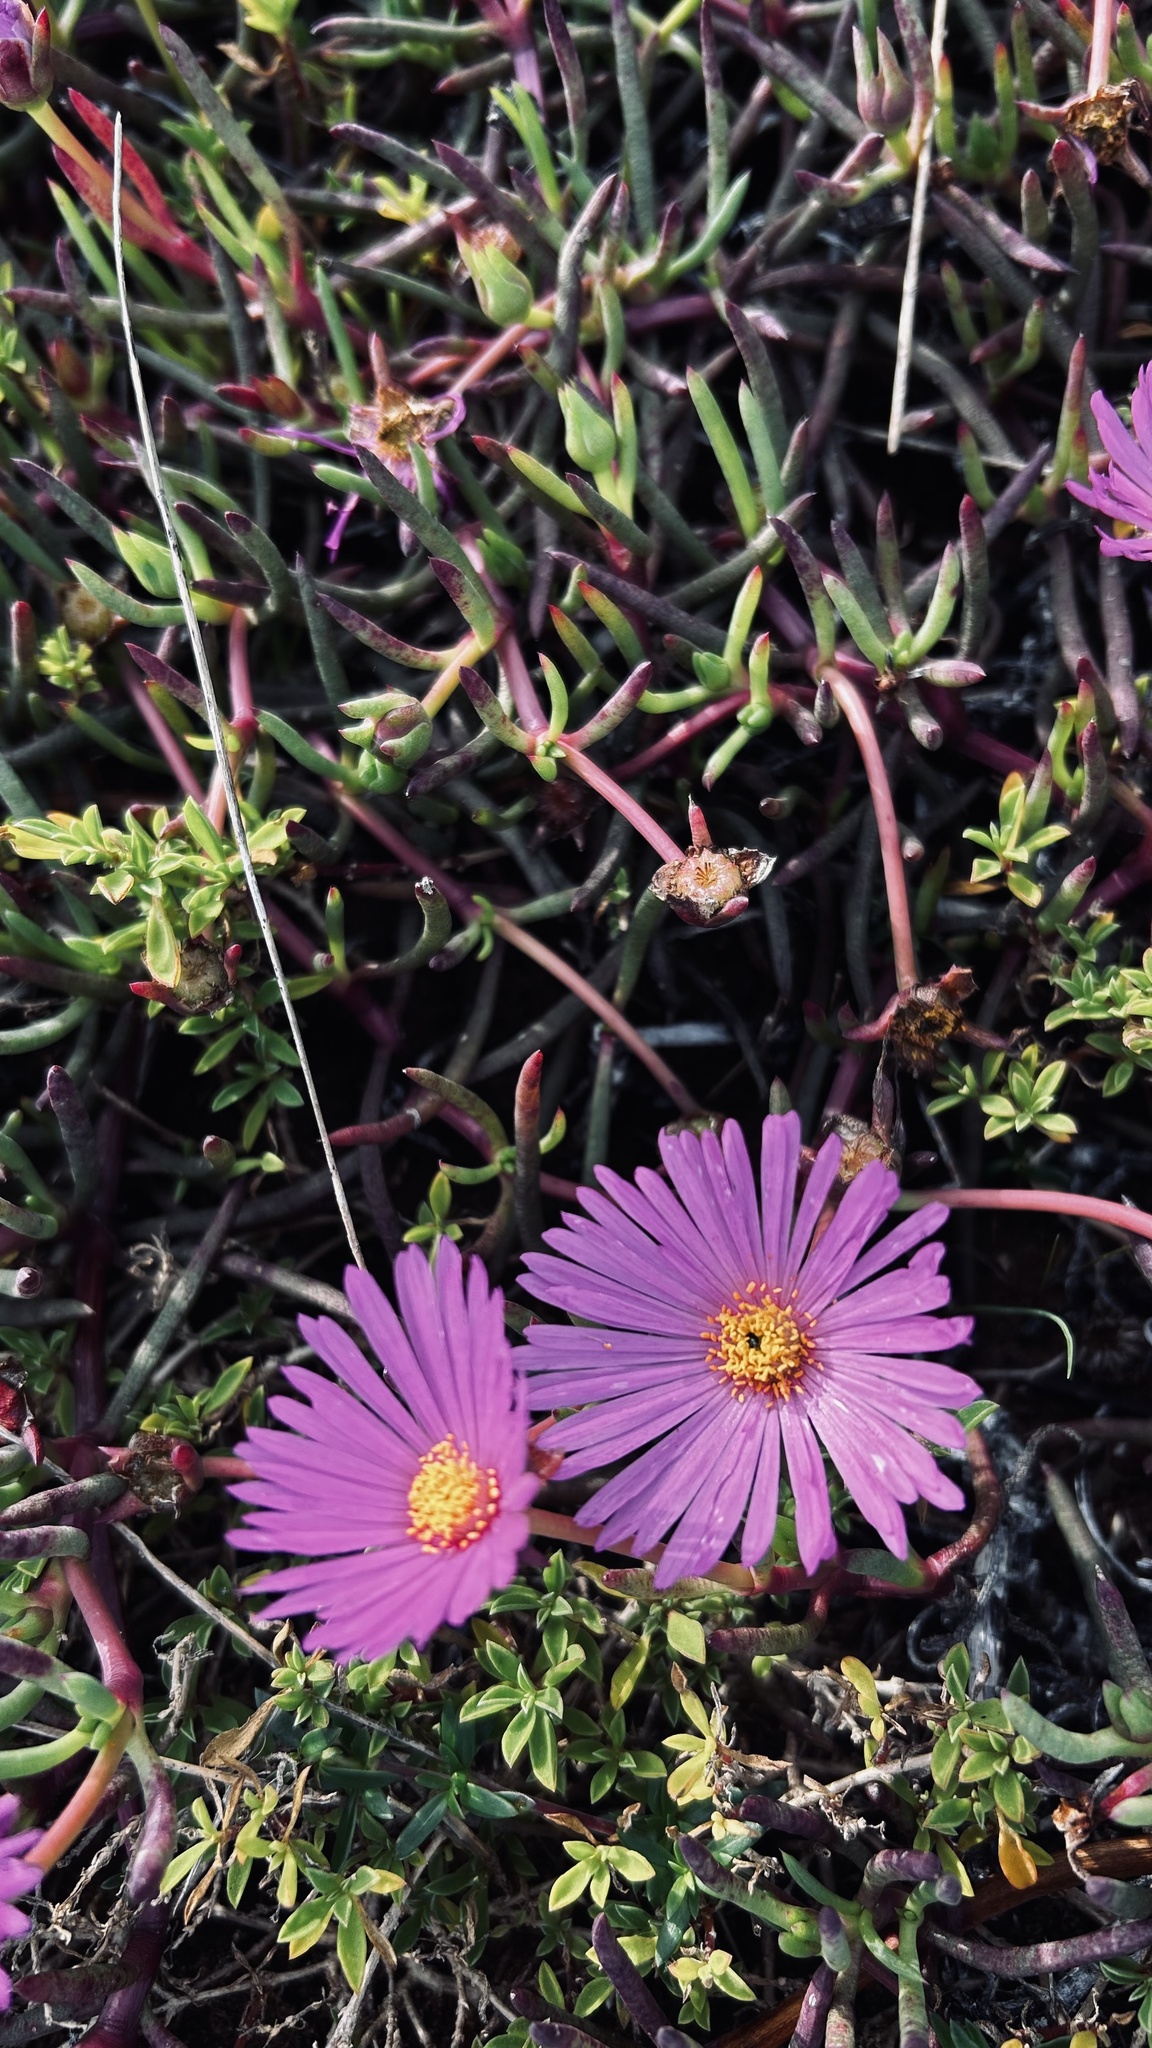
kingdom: Plantae
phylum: Tracheophyta
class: Magnoliopsida
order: Caryophyllales
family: Aizoaceae
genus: Jordaaniella
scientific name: Jordaaniella dubia
